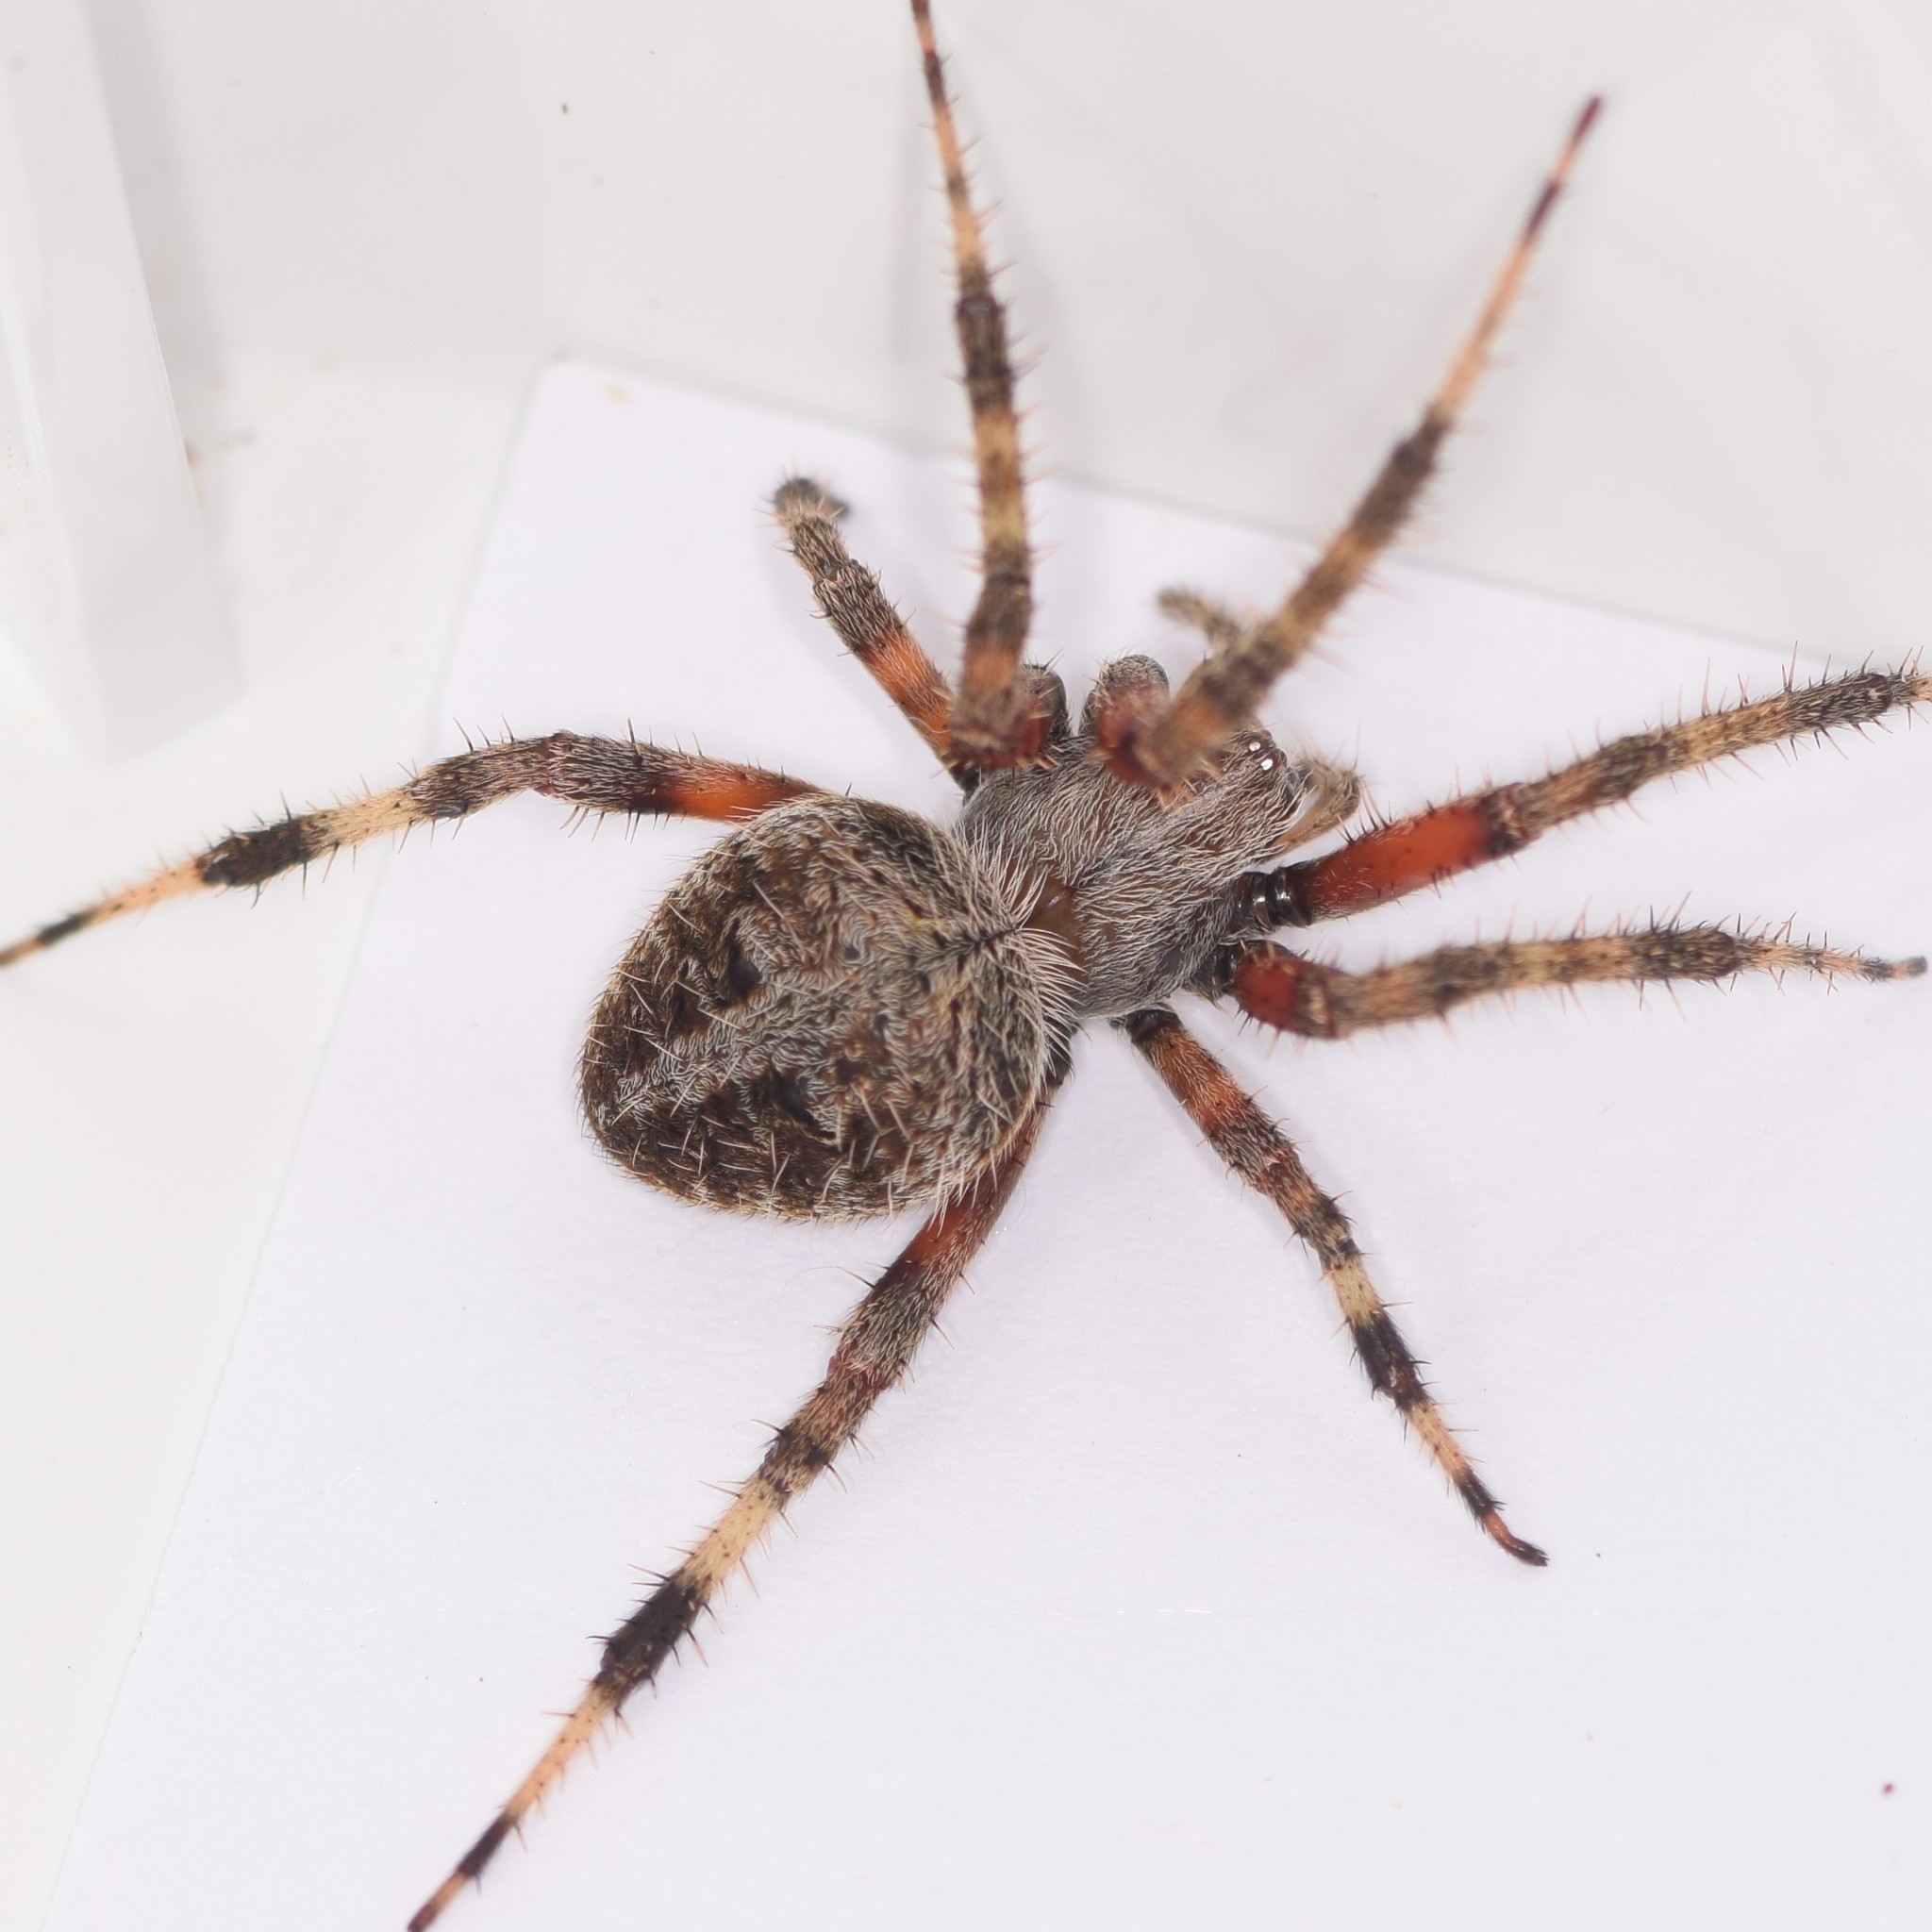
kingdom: Animalia
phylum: Arthropoda
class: Arachnida
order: Araneae
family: Araneidae
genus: Neoscona
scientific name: Neoscona domiciliorum
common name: Red-femured spotted orbweaver
